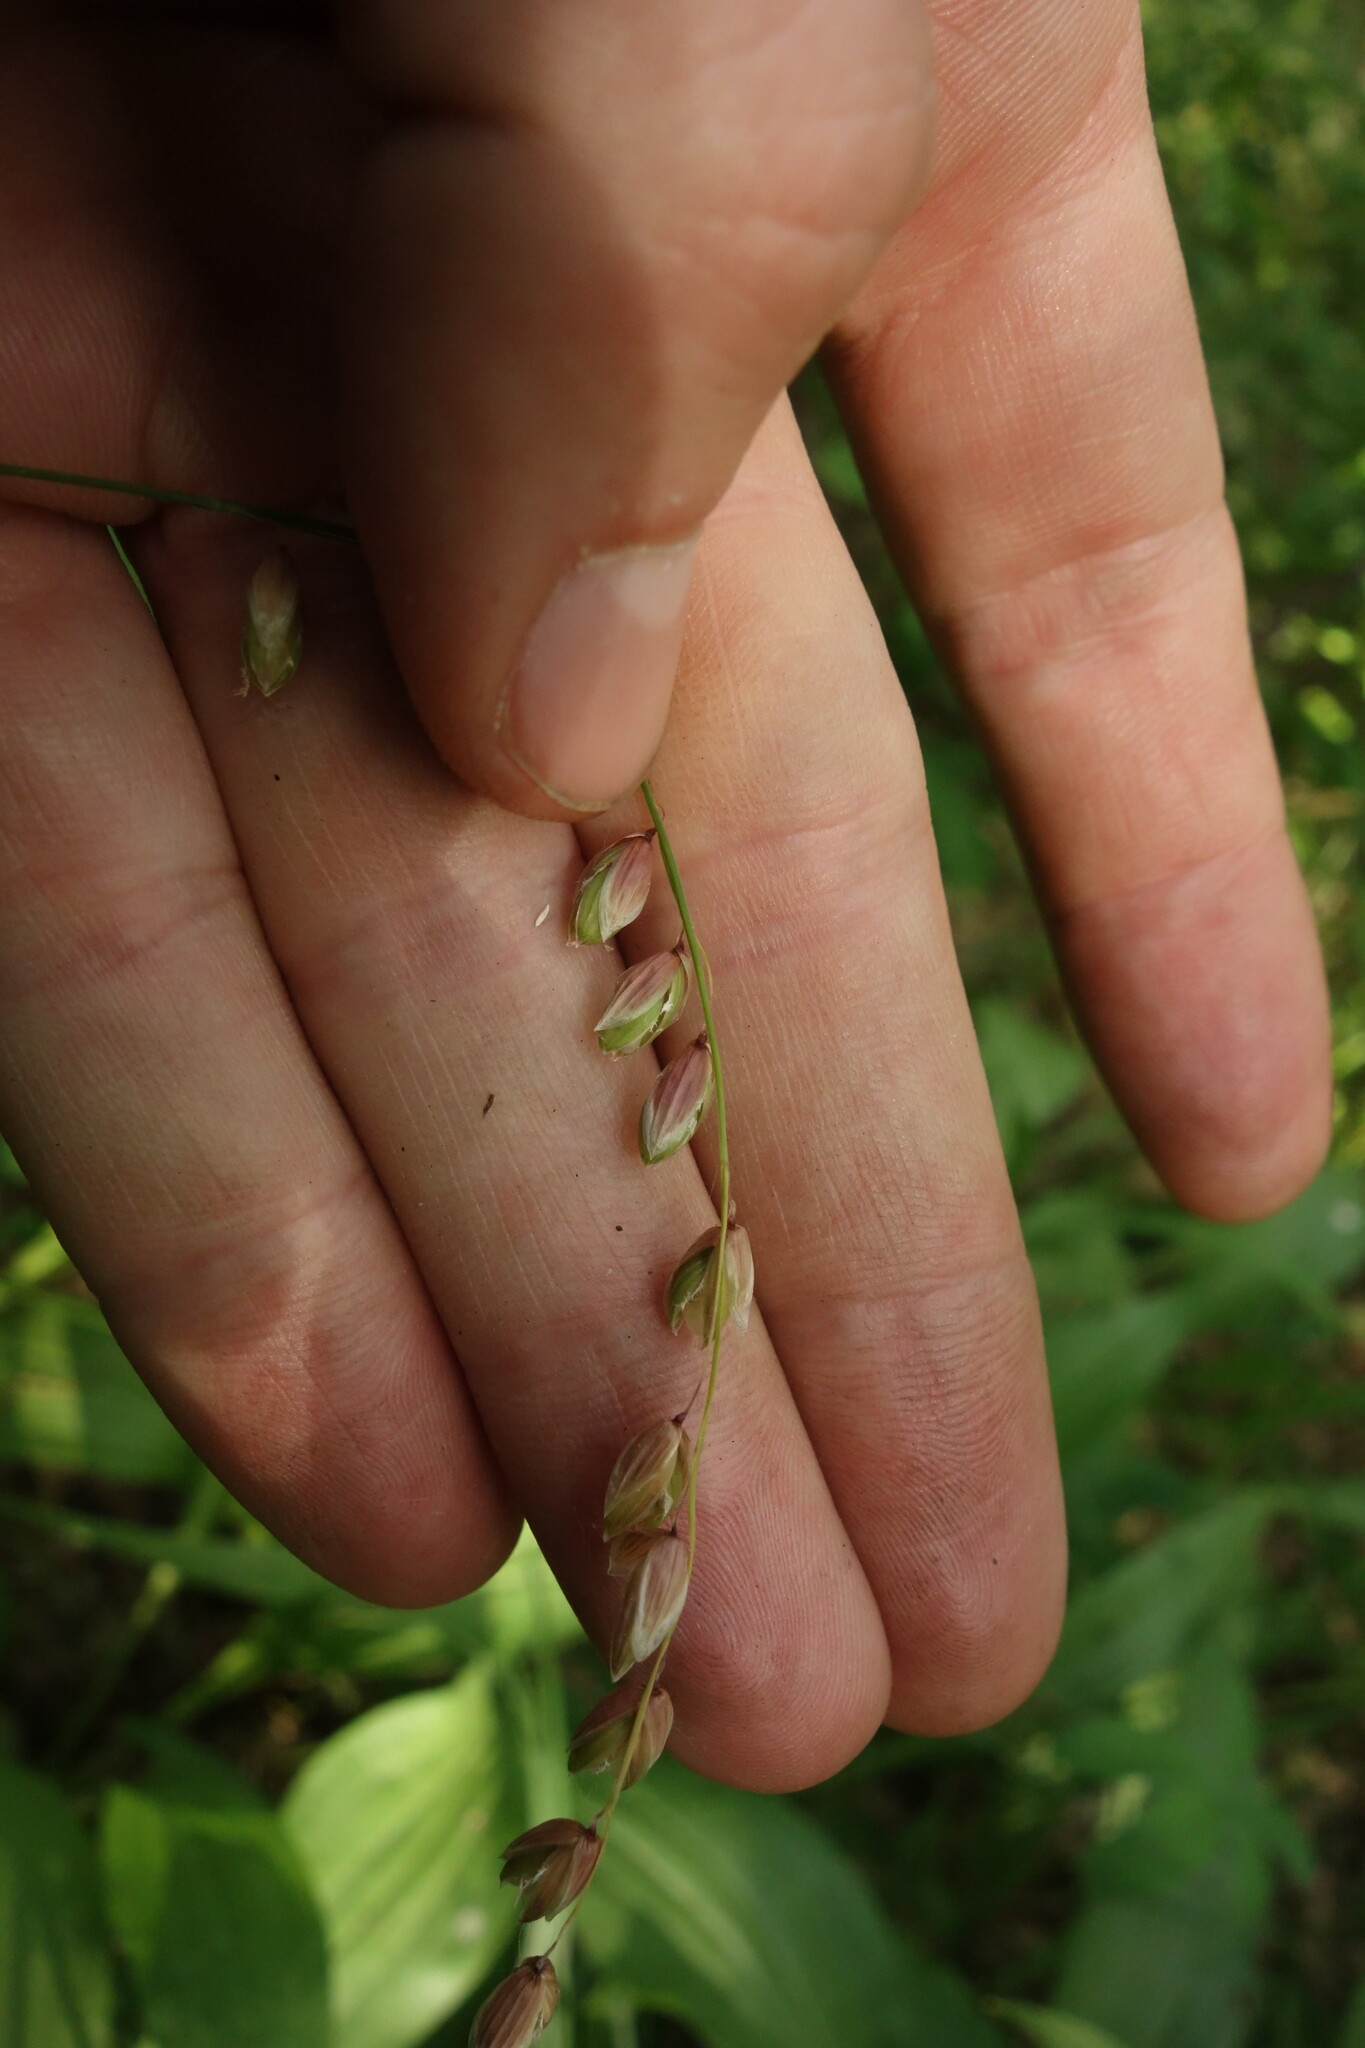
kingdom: Plantae
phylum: Tracheophyta
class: Liliopsida
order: Poales
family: Poaceae
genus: Melica
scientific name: Melica nutans
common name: Mountain melick
